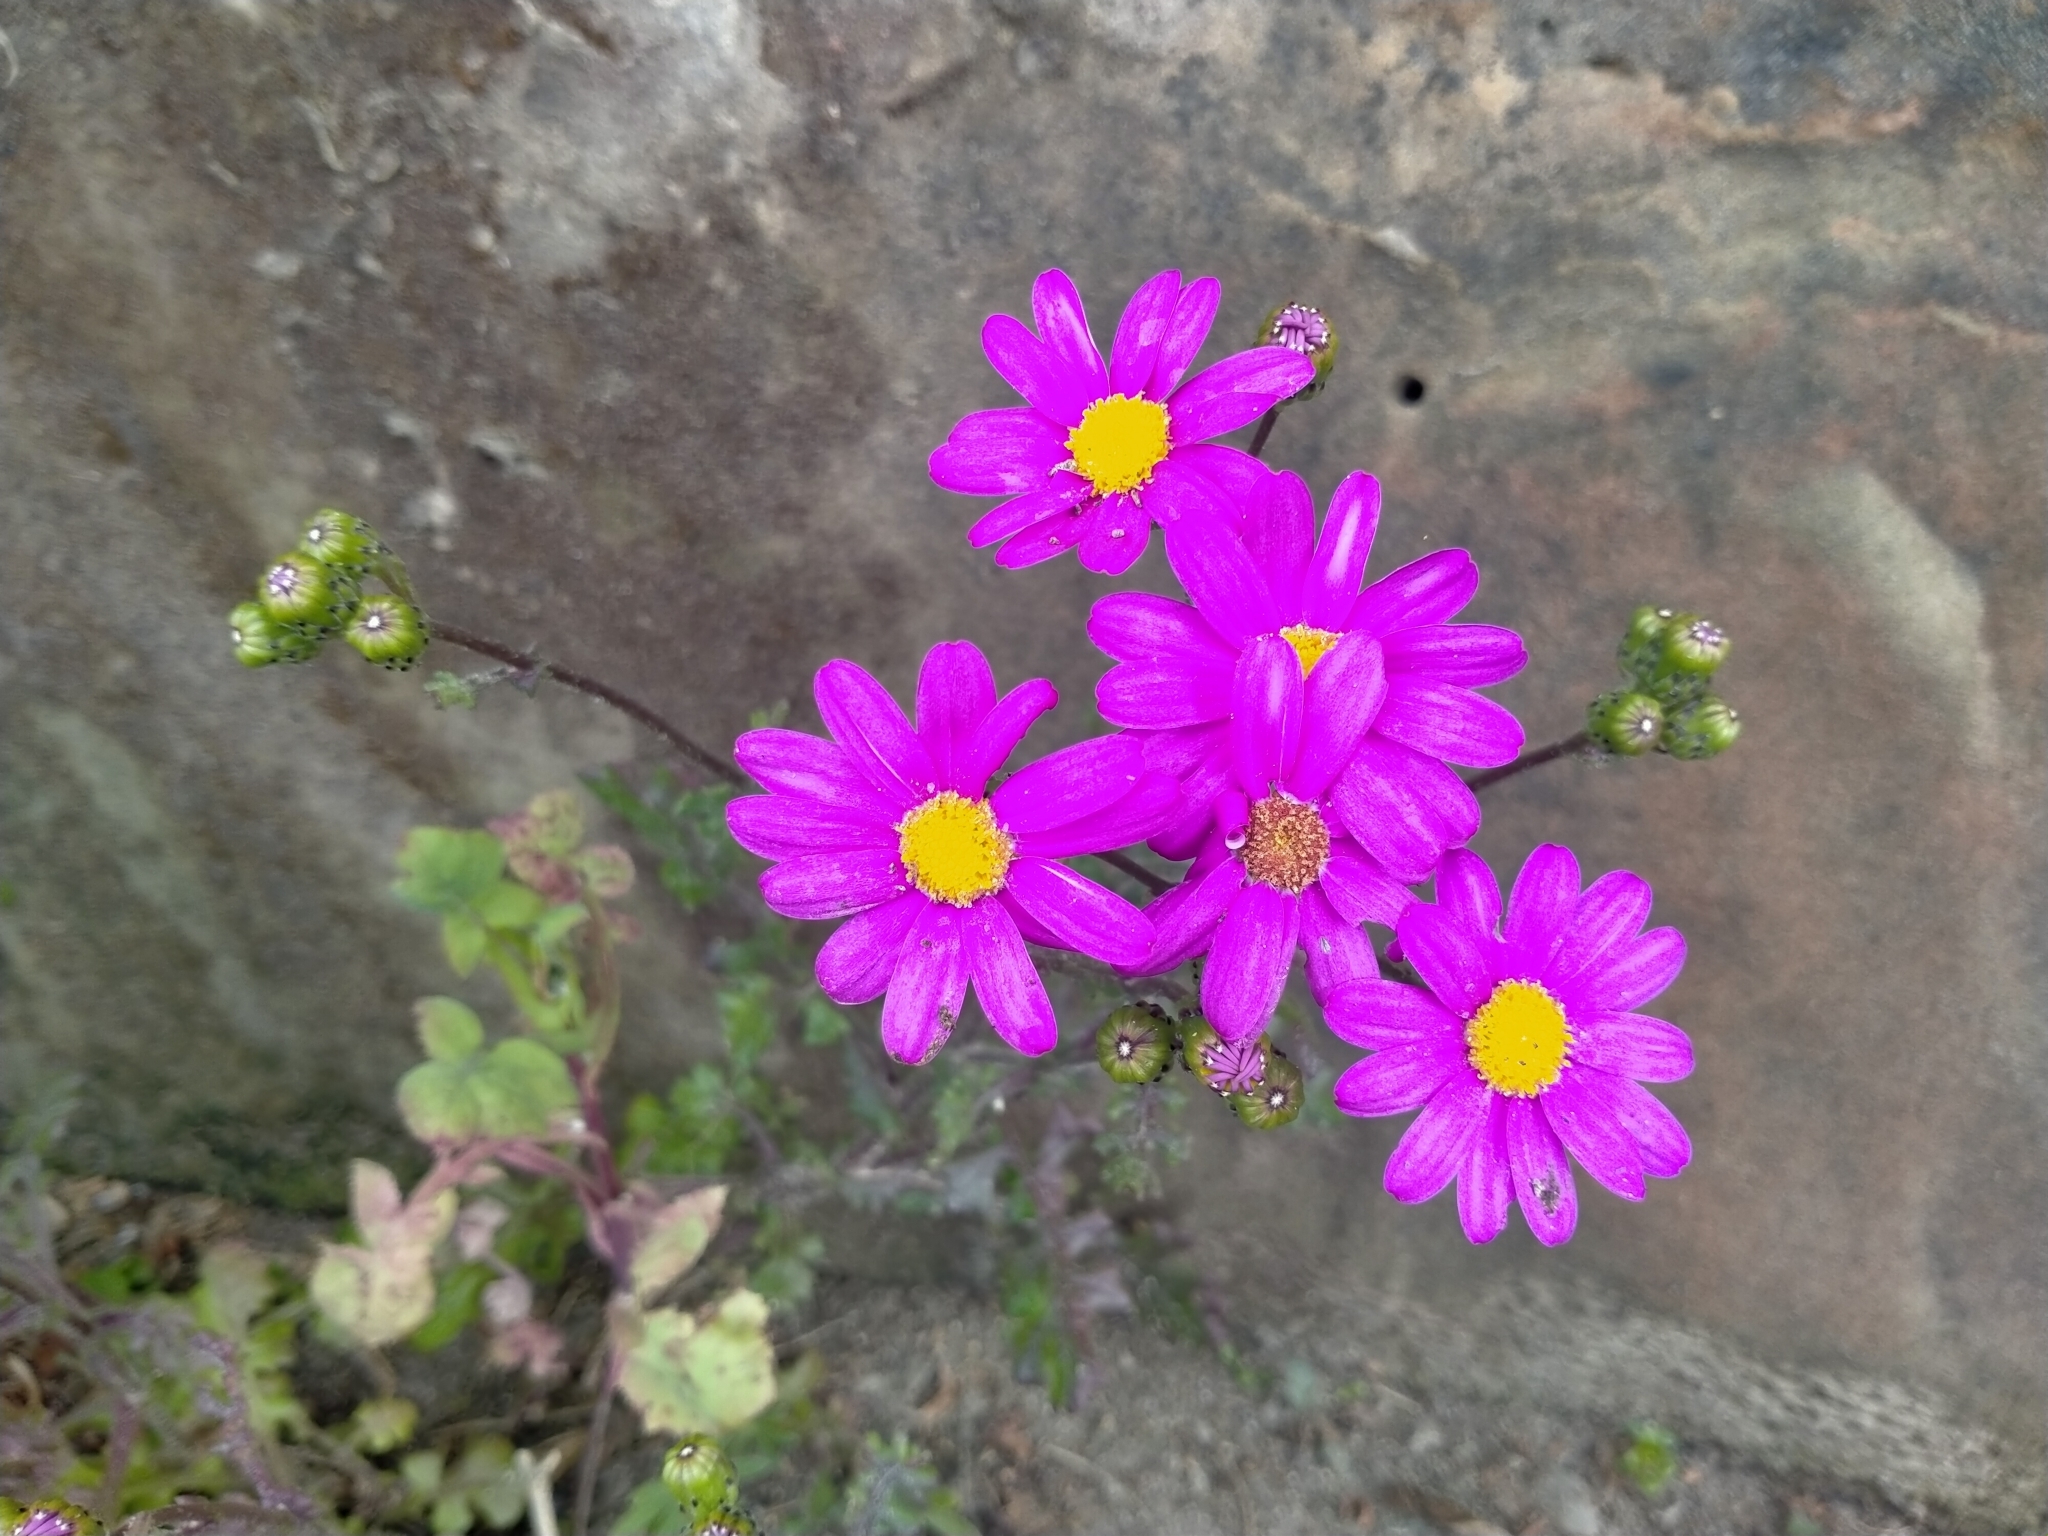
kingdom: Plantae
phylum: Tracheophyta
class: Magnoliopsida
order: Asterales
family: Asteraceae
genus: Senecio
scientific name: Senecio elegans
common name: Purple groundsel
